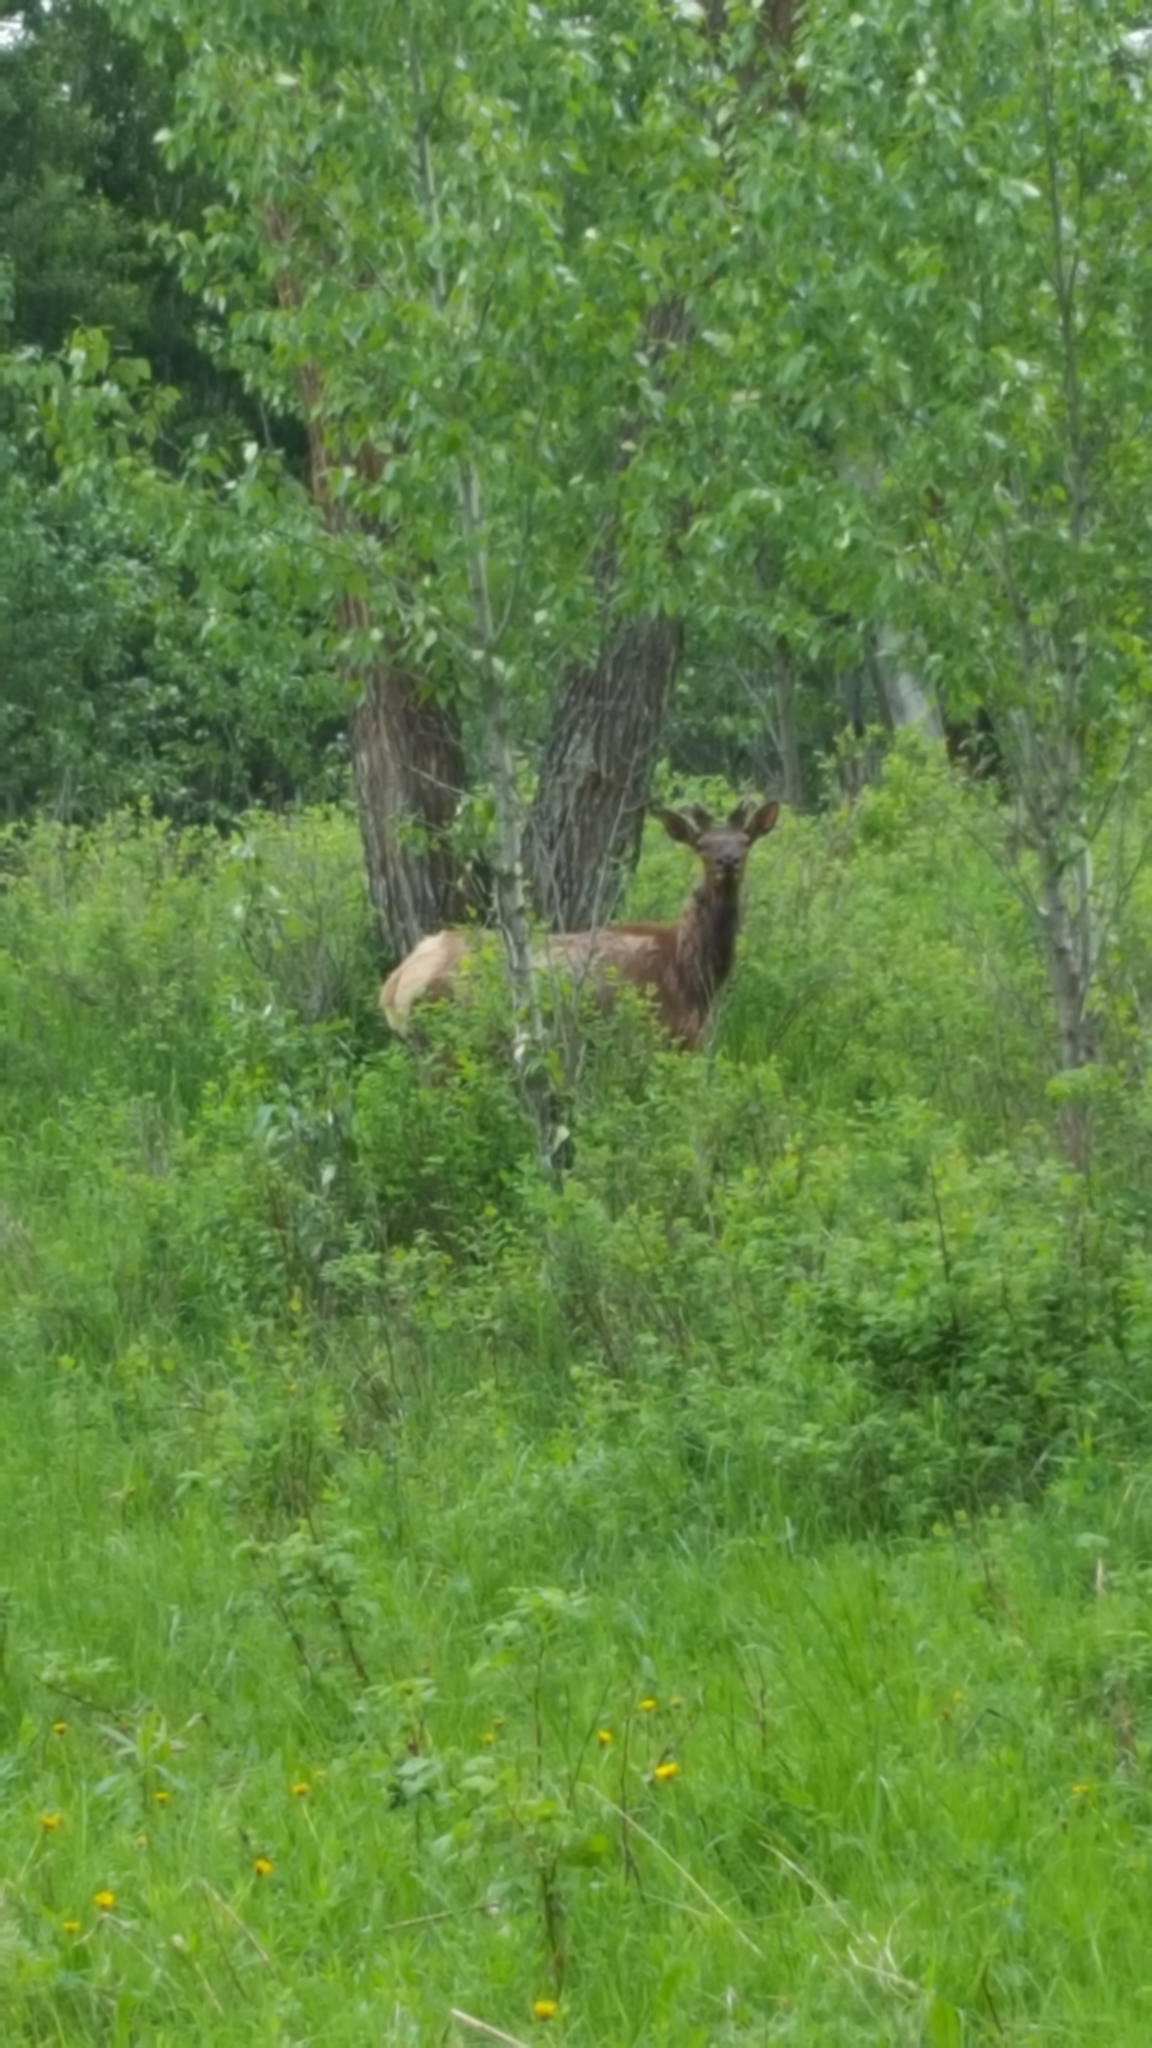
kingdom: Animalia
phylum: Chordata
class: Mammalia
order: Artiodactyla
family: Cervidae
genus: Cervus
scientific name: Cervus elaphus
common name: Red deer
